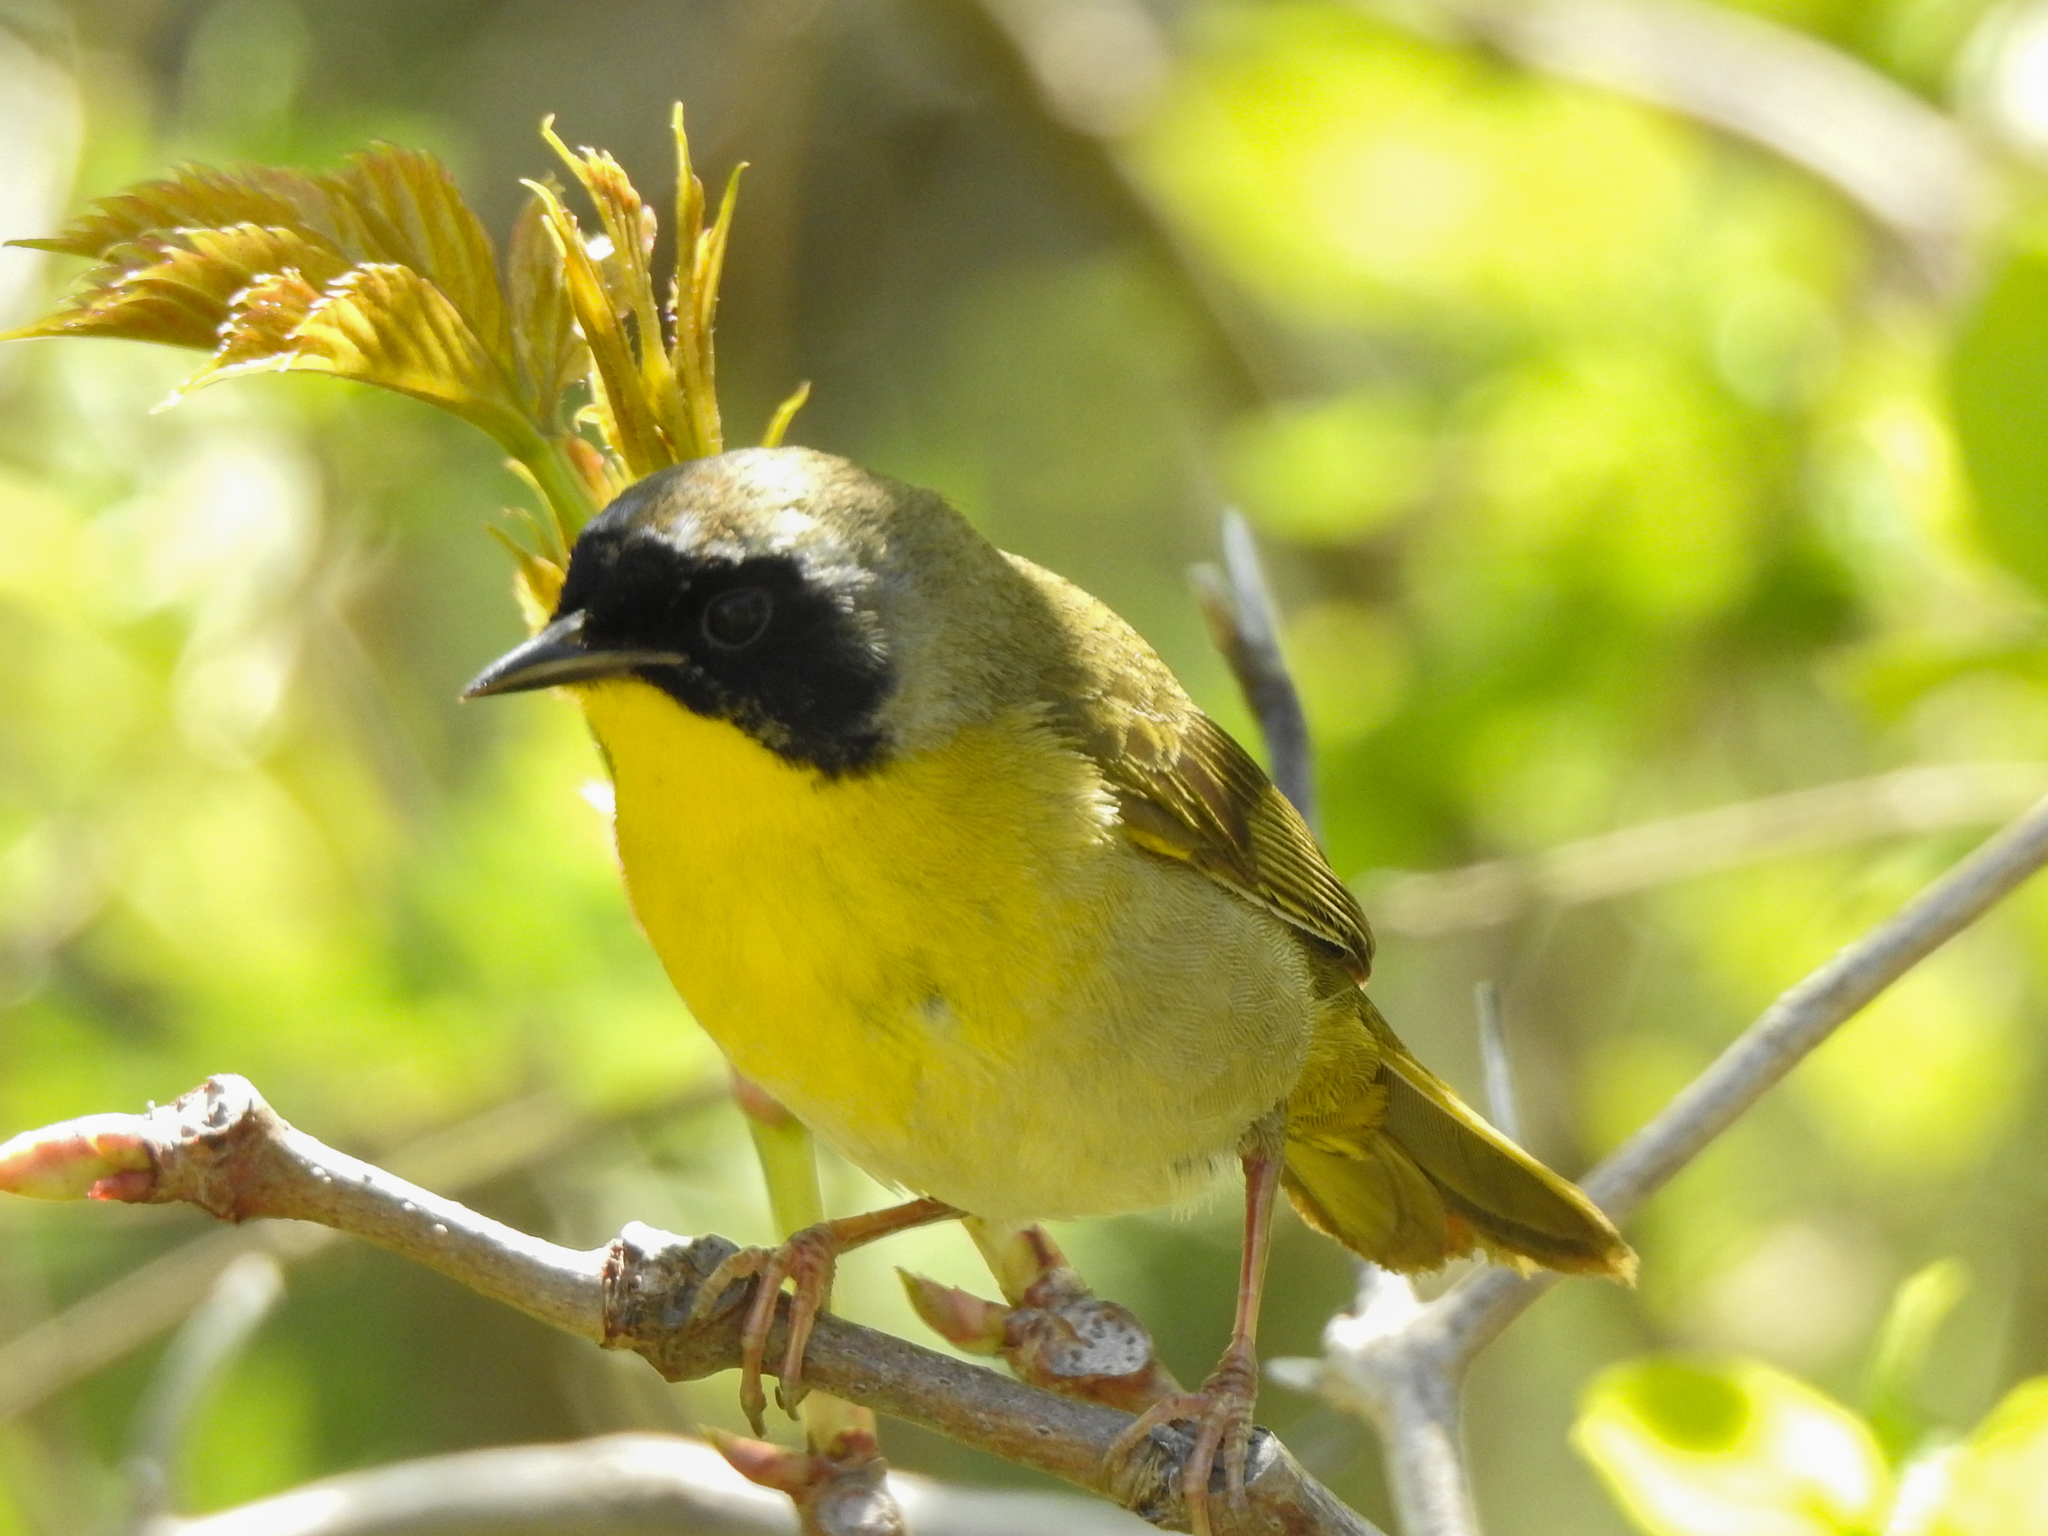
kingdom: Animalia
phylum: Chordata
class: Aves
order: Passeriformes
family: Parulidae
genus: Geothlypis
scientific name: Geothlypis trichas
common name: Common yellowthroat
